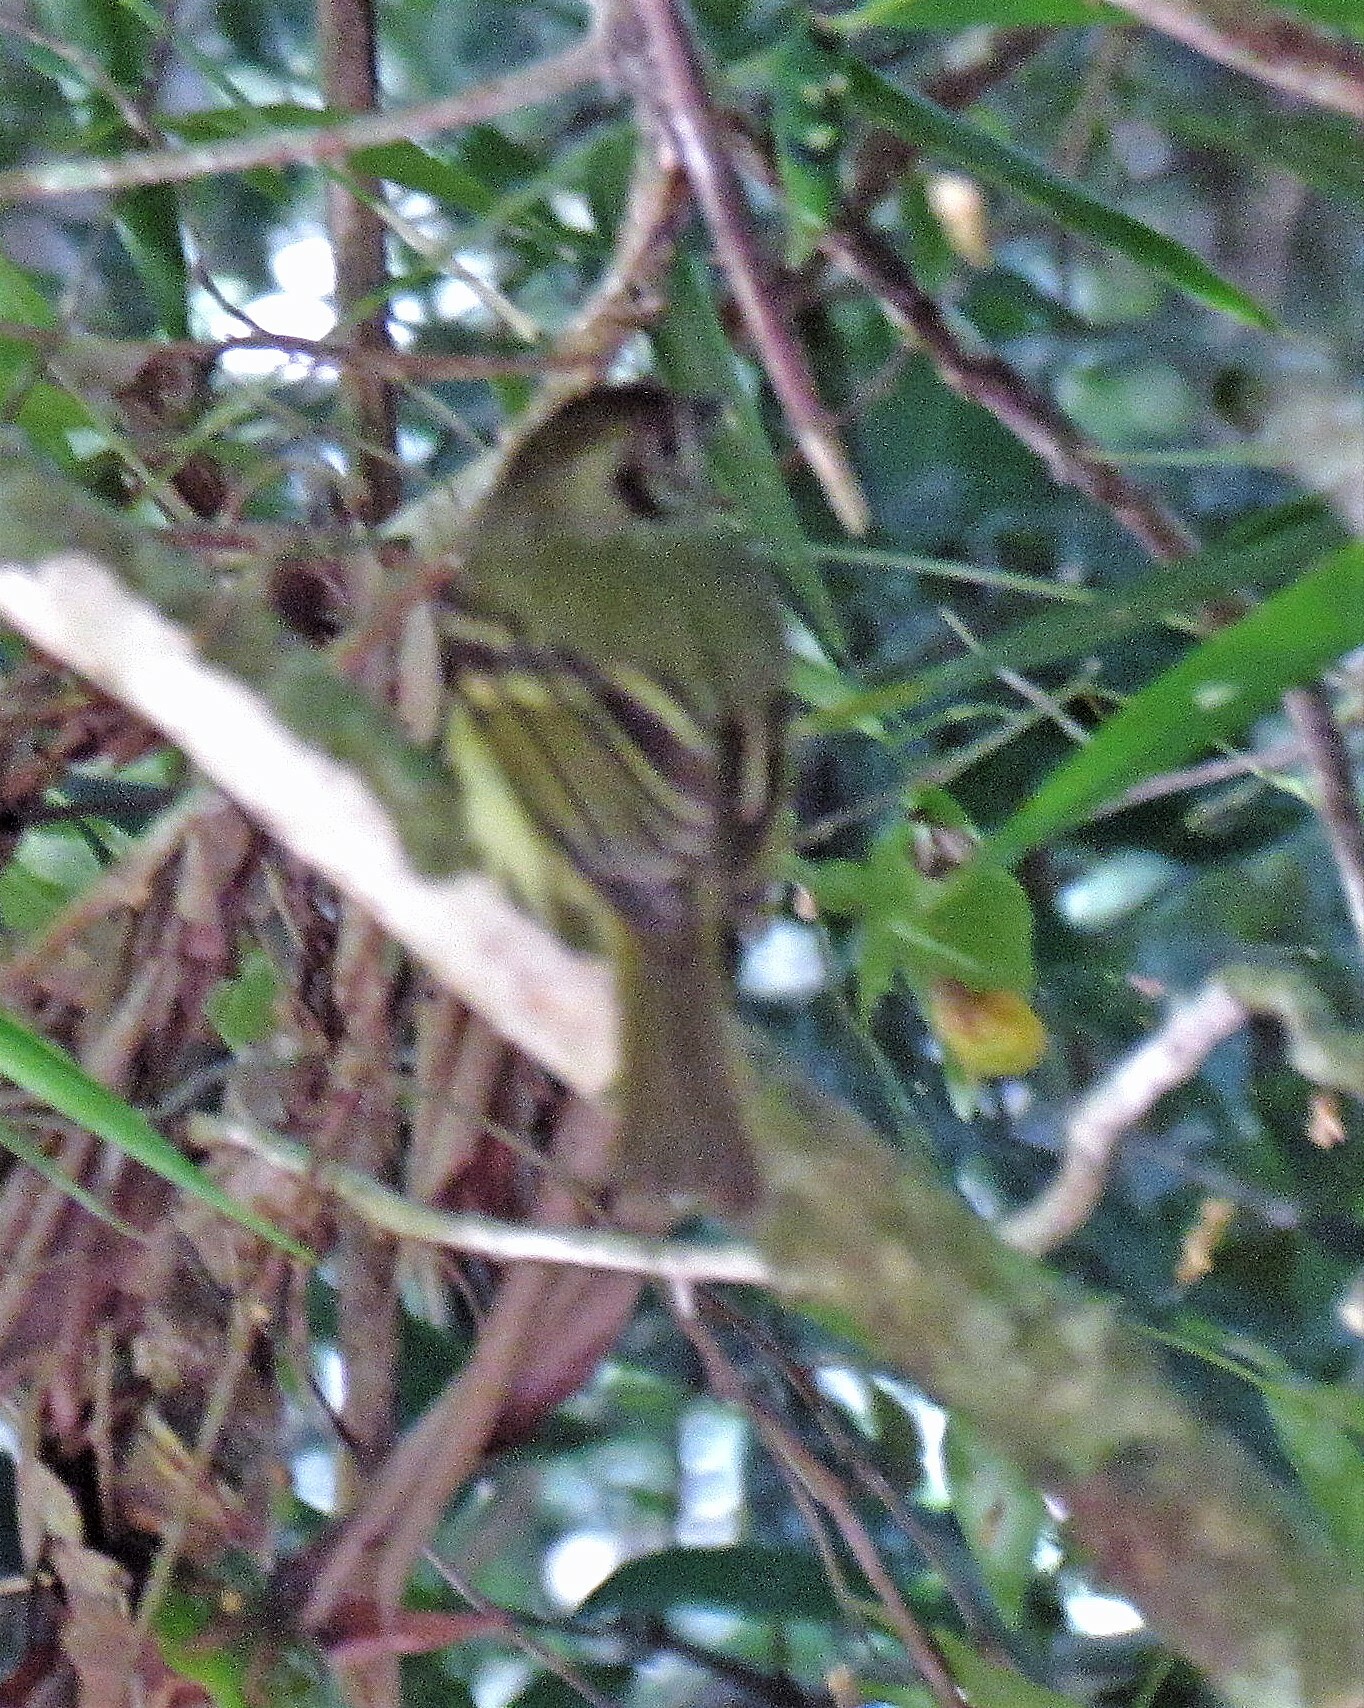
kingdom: Animalia
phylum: Chordata
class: Aves
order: Passeriformes
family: Tyrannidae
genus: Leptopogon
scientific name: Leptopogon amaurocephalus
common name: Sepia-capped flycatcher
